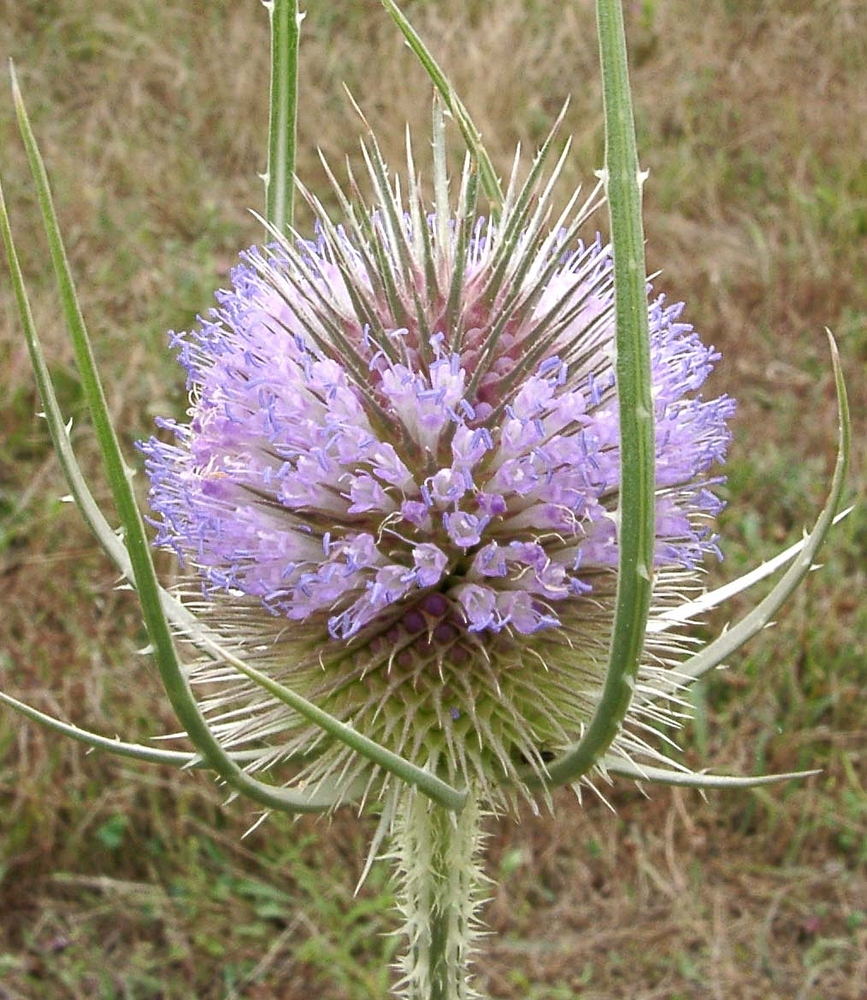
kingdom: Plantae
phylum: Tracheophyta
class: Magnoliopsida
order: Dipsacales
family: Caprifoliaceae
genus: Dipsacus
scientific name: Dipsacus fullonum
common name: Teasel
